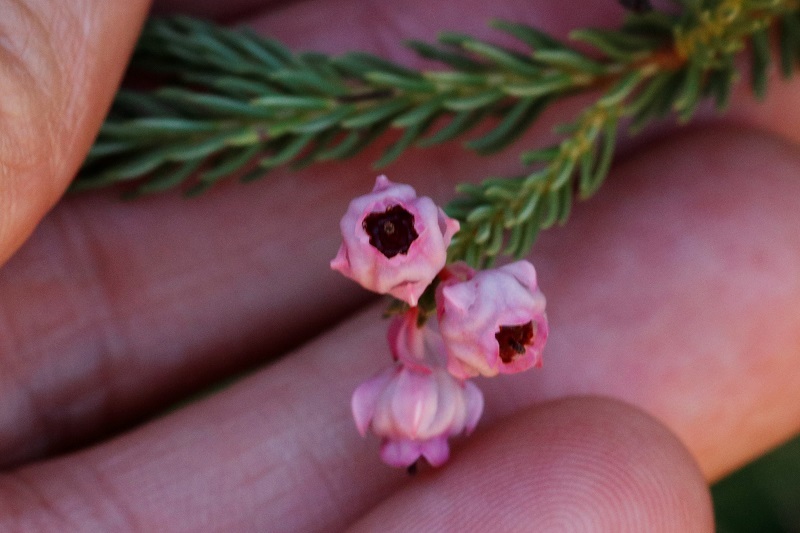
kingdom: Plantae
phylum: Tracheophyta
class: Magnoliopsida
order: Ericales
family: Ericaceae
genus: Erica
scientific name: Erica baccans
